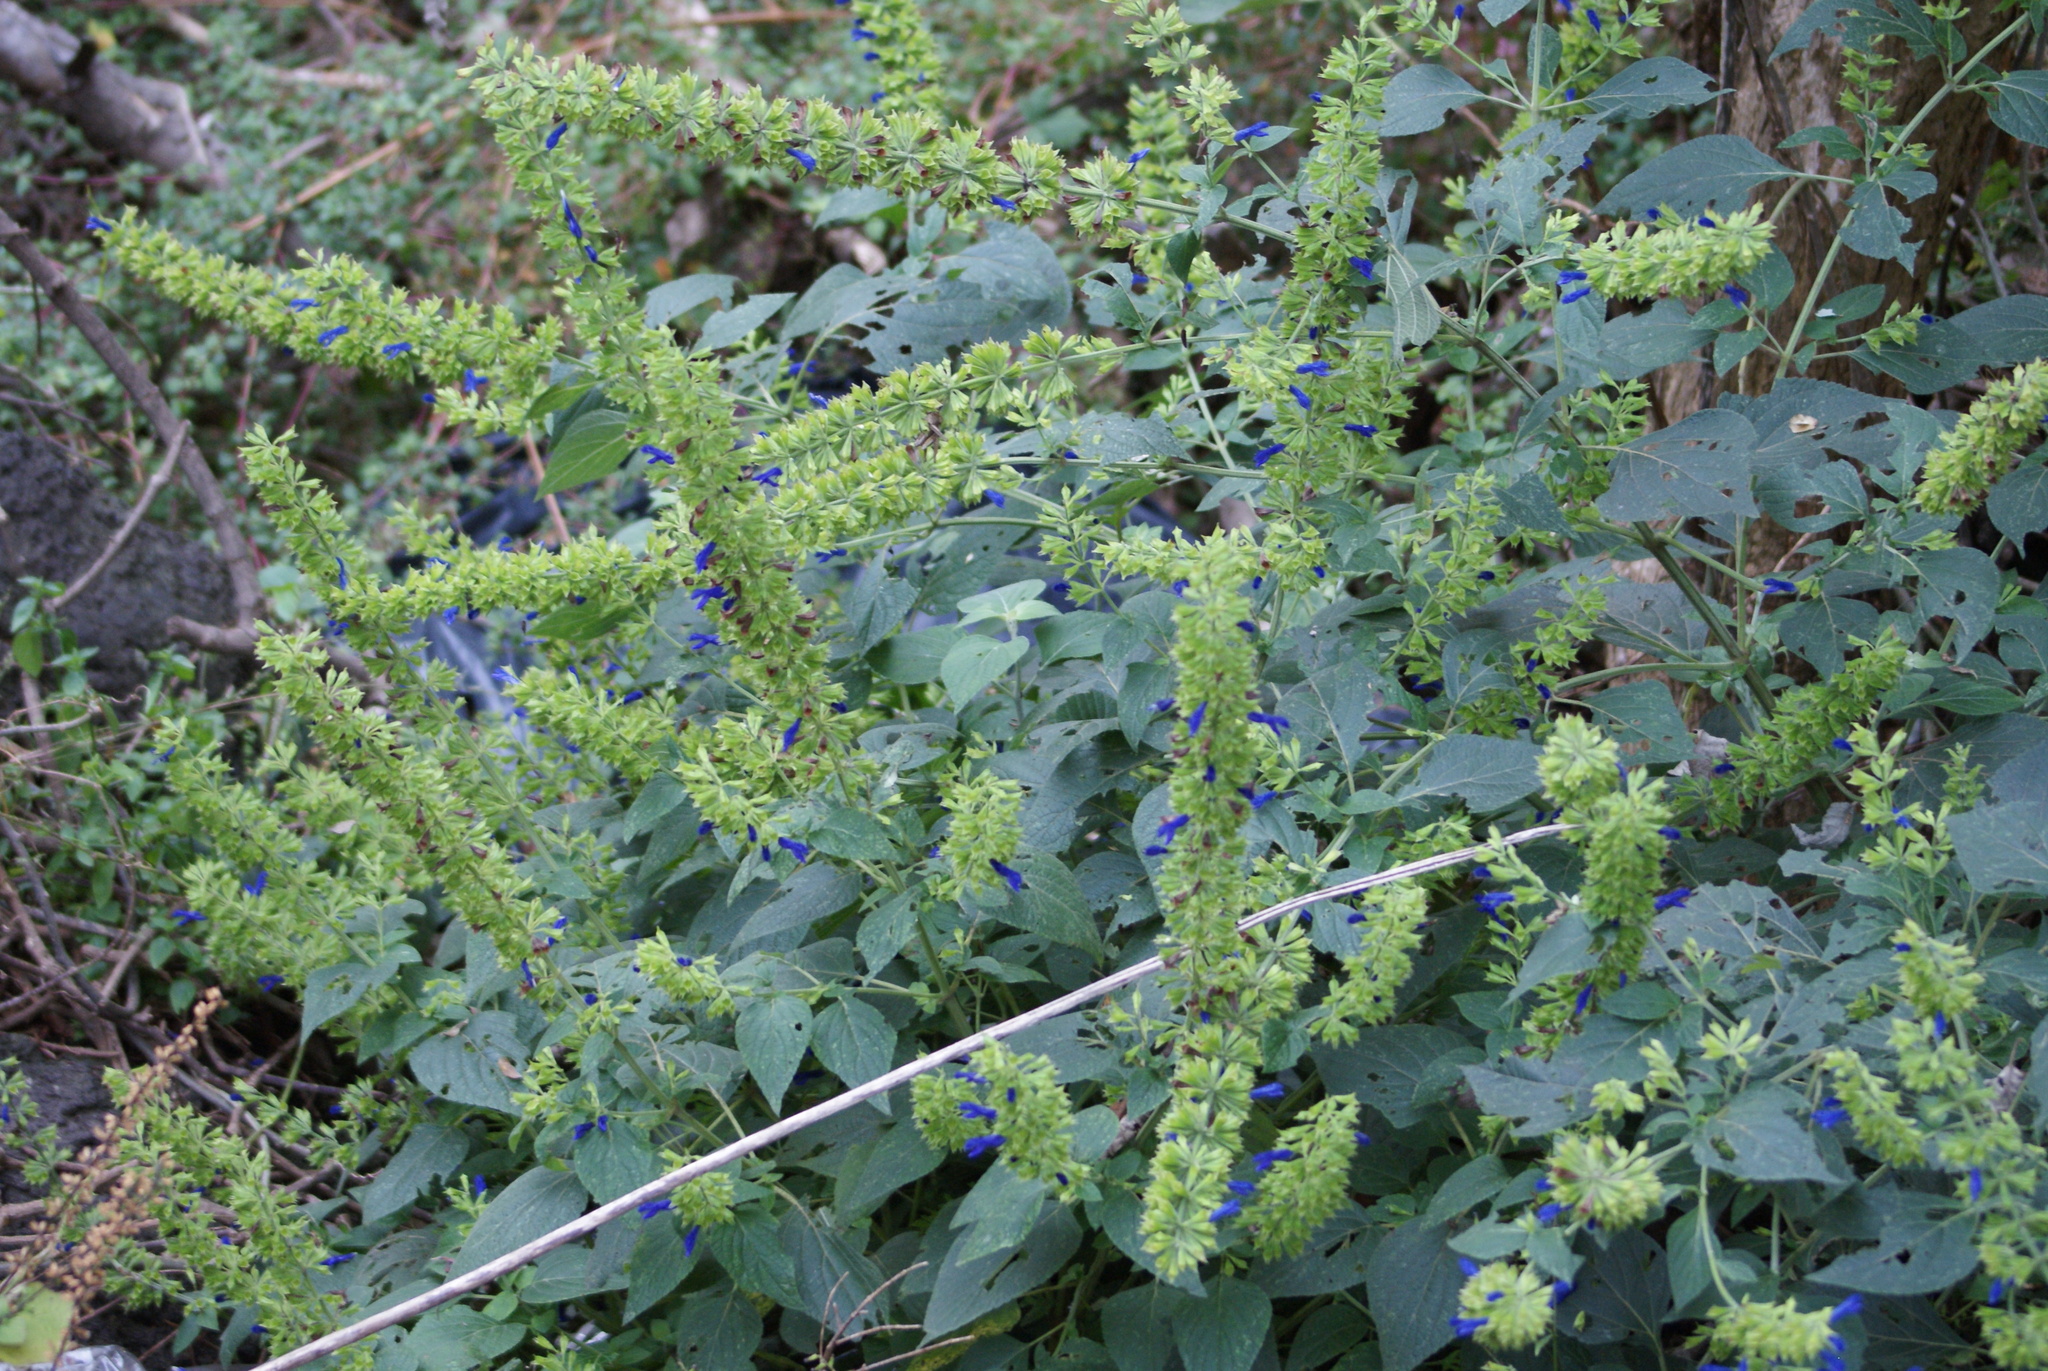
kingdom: Plantae
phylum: Tracheophyta
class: Magnoliopsida
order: Lamiales
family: Lamiaceae
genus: Salvia
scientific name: Salvia mexicana
